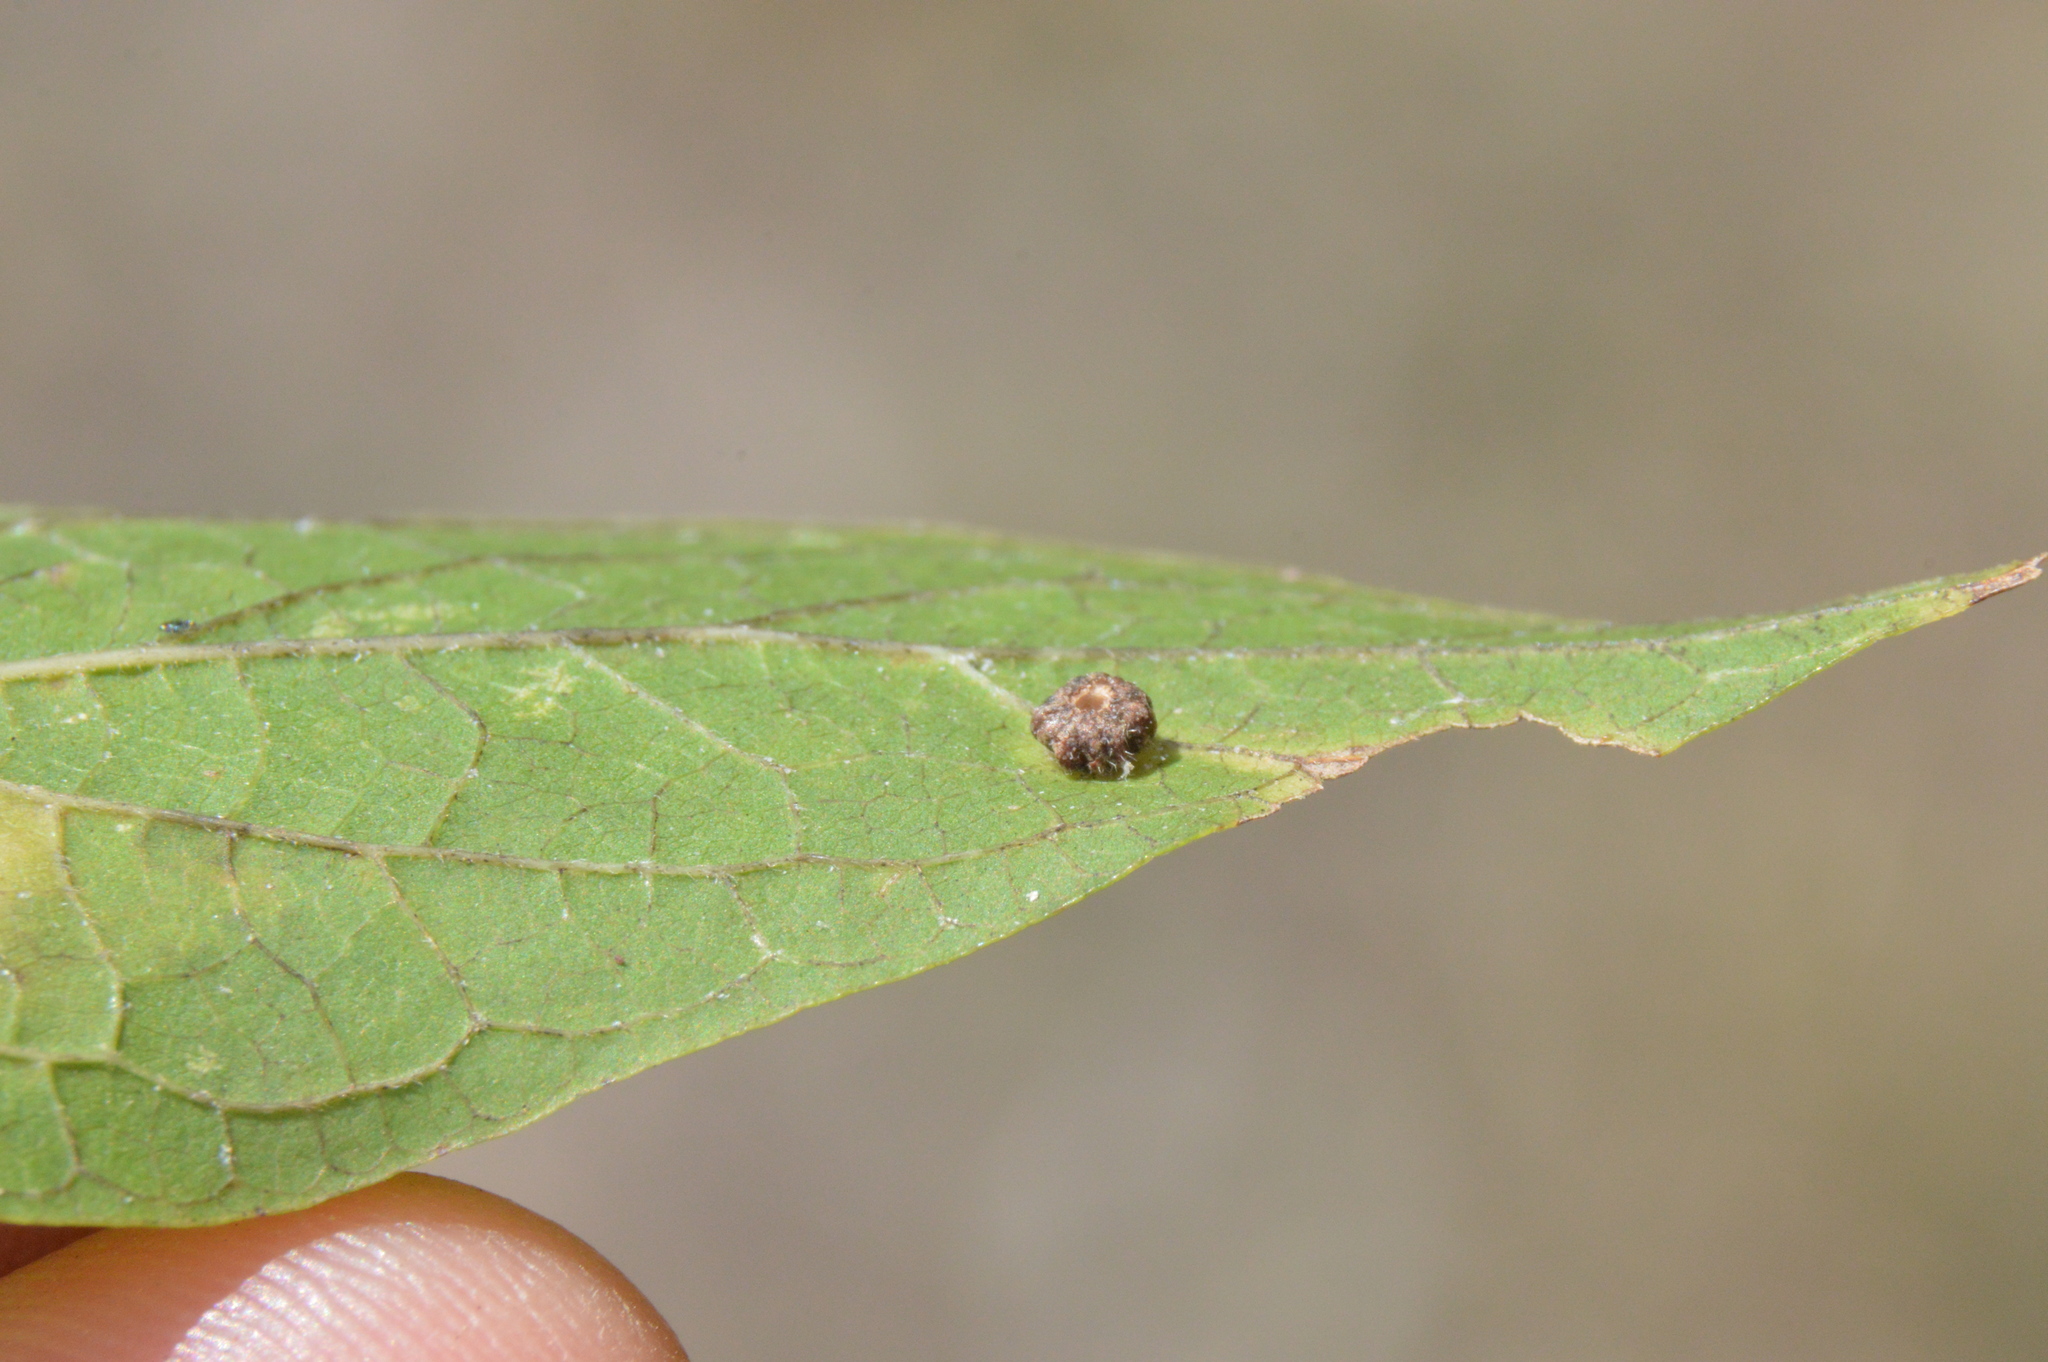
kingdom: Animalia
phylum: Arthropoda
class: Insecta
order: Diptera
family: Cecidomyiidae
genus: Celticecis
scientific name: Celticecis capsularis
